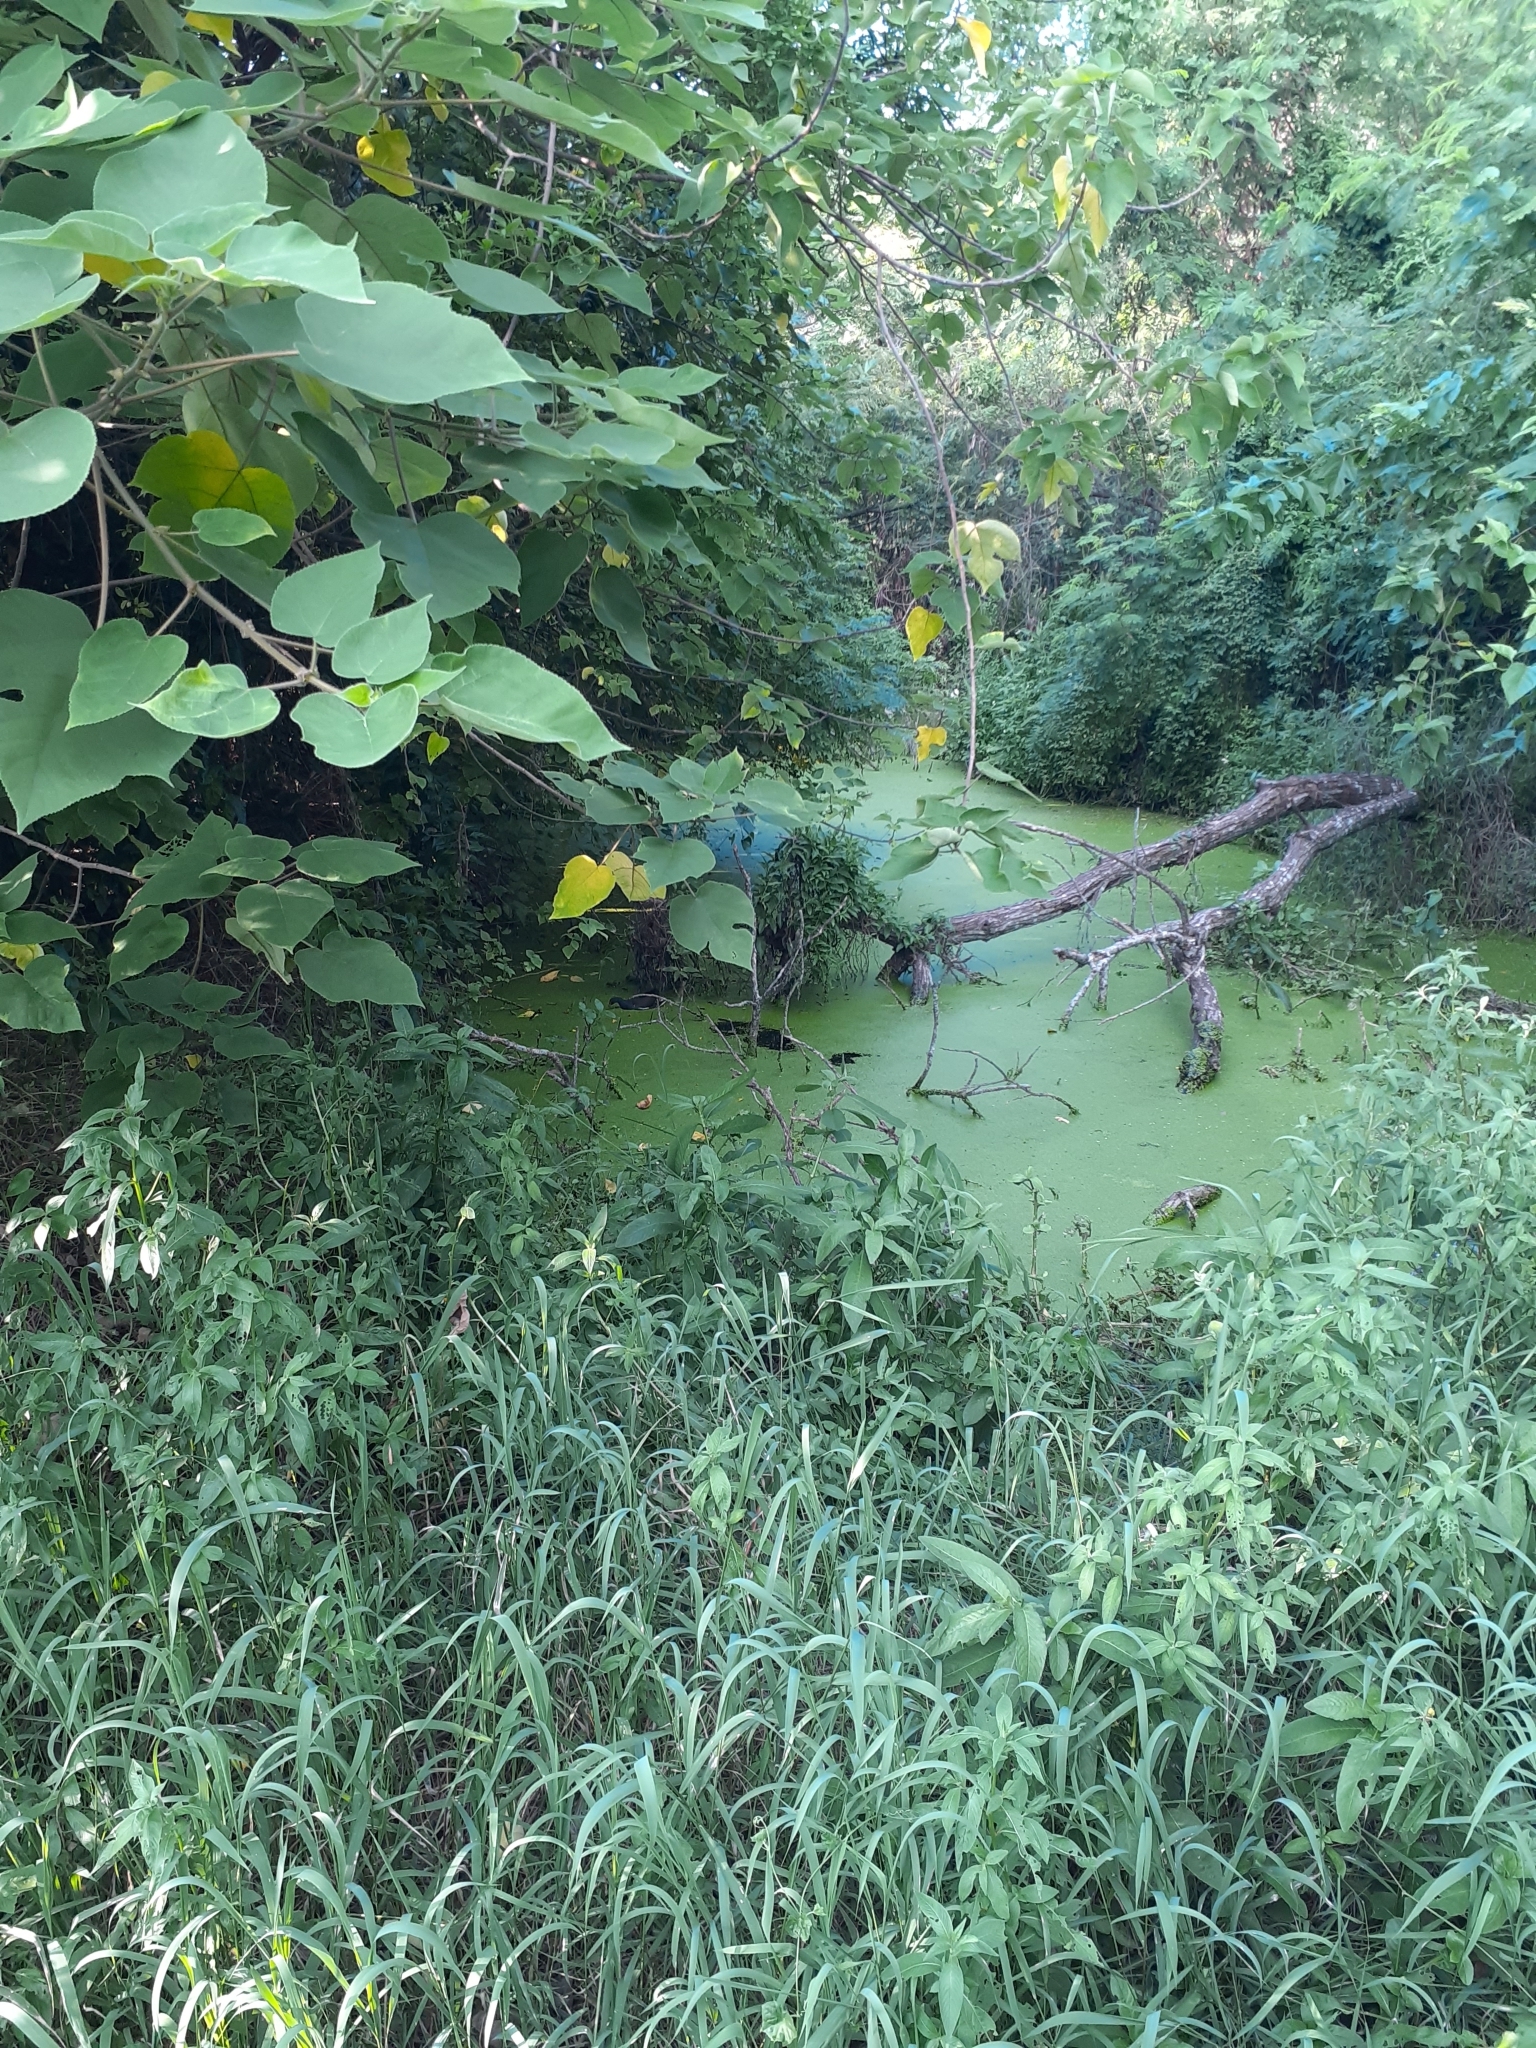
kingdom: Animalia
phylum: Chordata
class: Aves
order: Gruiformes
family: Rallidae
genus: Gallinula
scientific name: Gallinula chloropus
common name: Common moorhen
